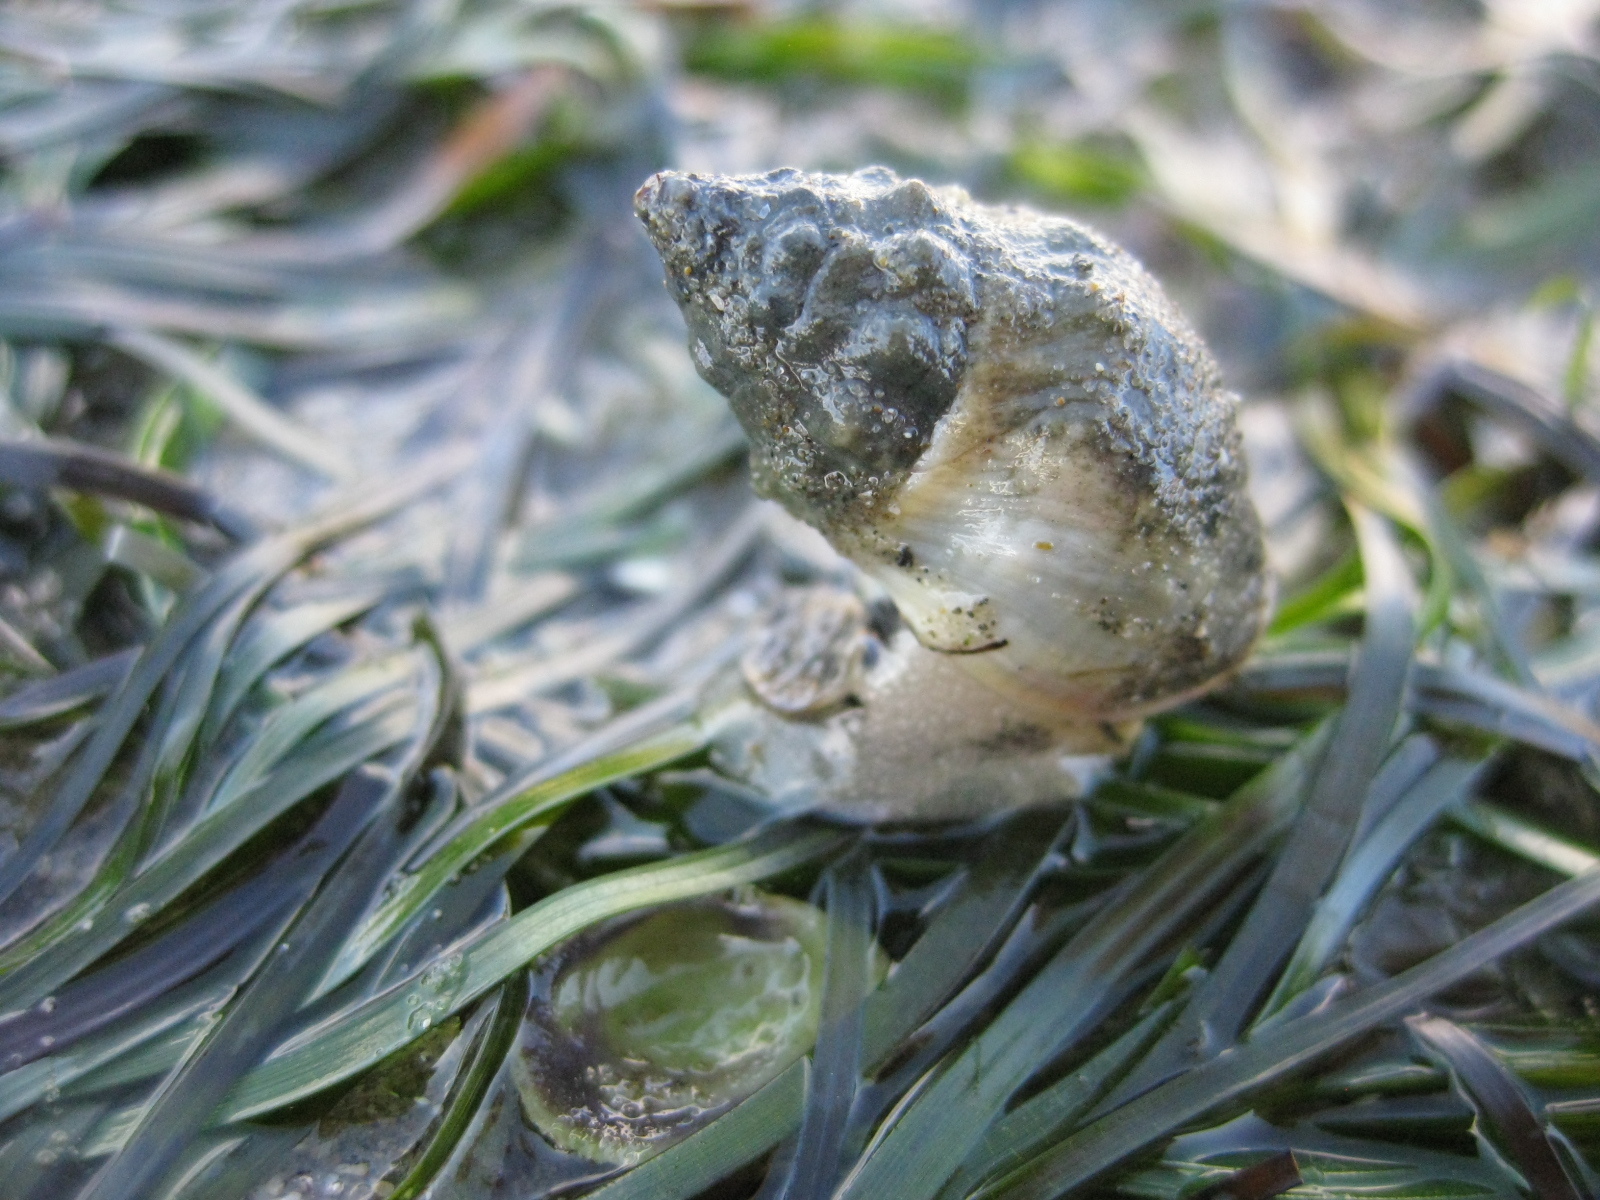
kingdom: Animalia
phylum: Mollusca
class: Gastropoda
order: Neogastropoda
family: Cominellidae
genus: Cominella
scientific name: Cominella glandiformis
